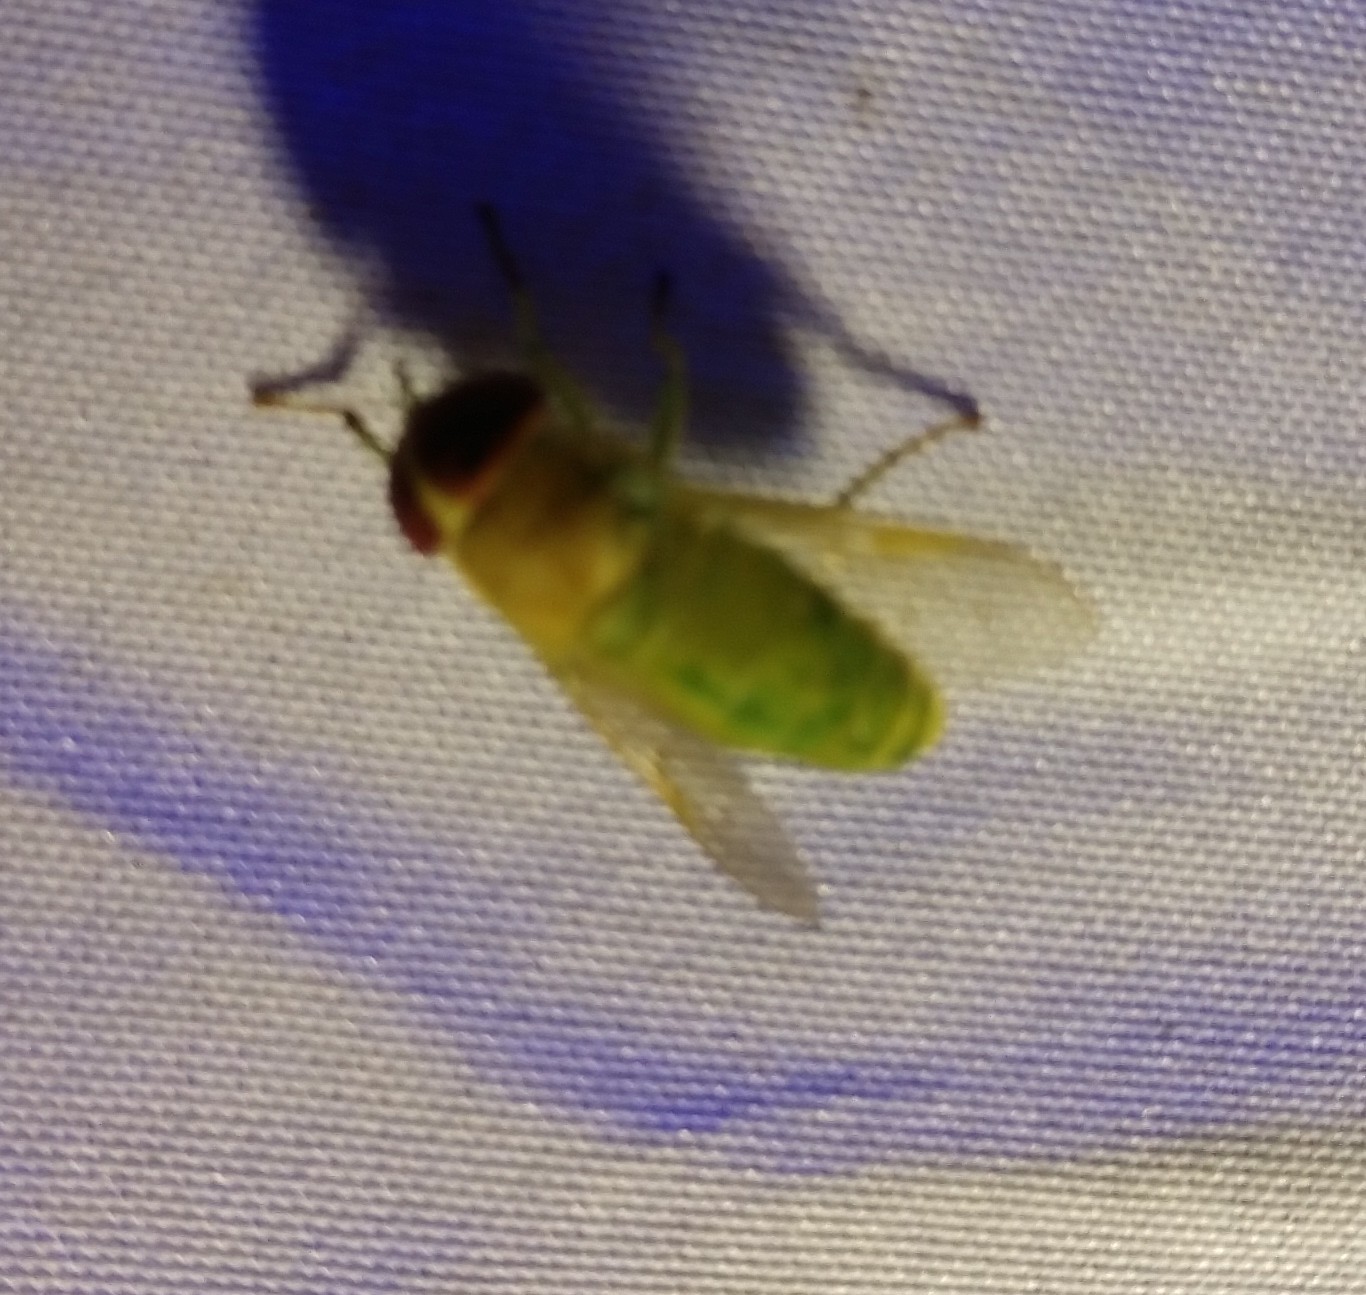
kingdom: Animalia
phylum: Arthropoda
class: Insecta
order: Diptera
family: Tabanidae
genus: Chlorotabanus
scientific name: Chlorotabanus crepuscularis
